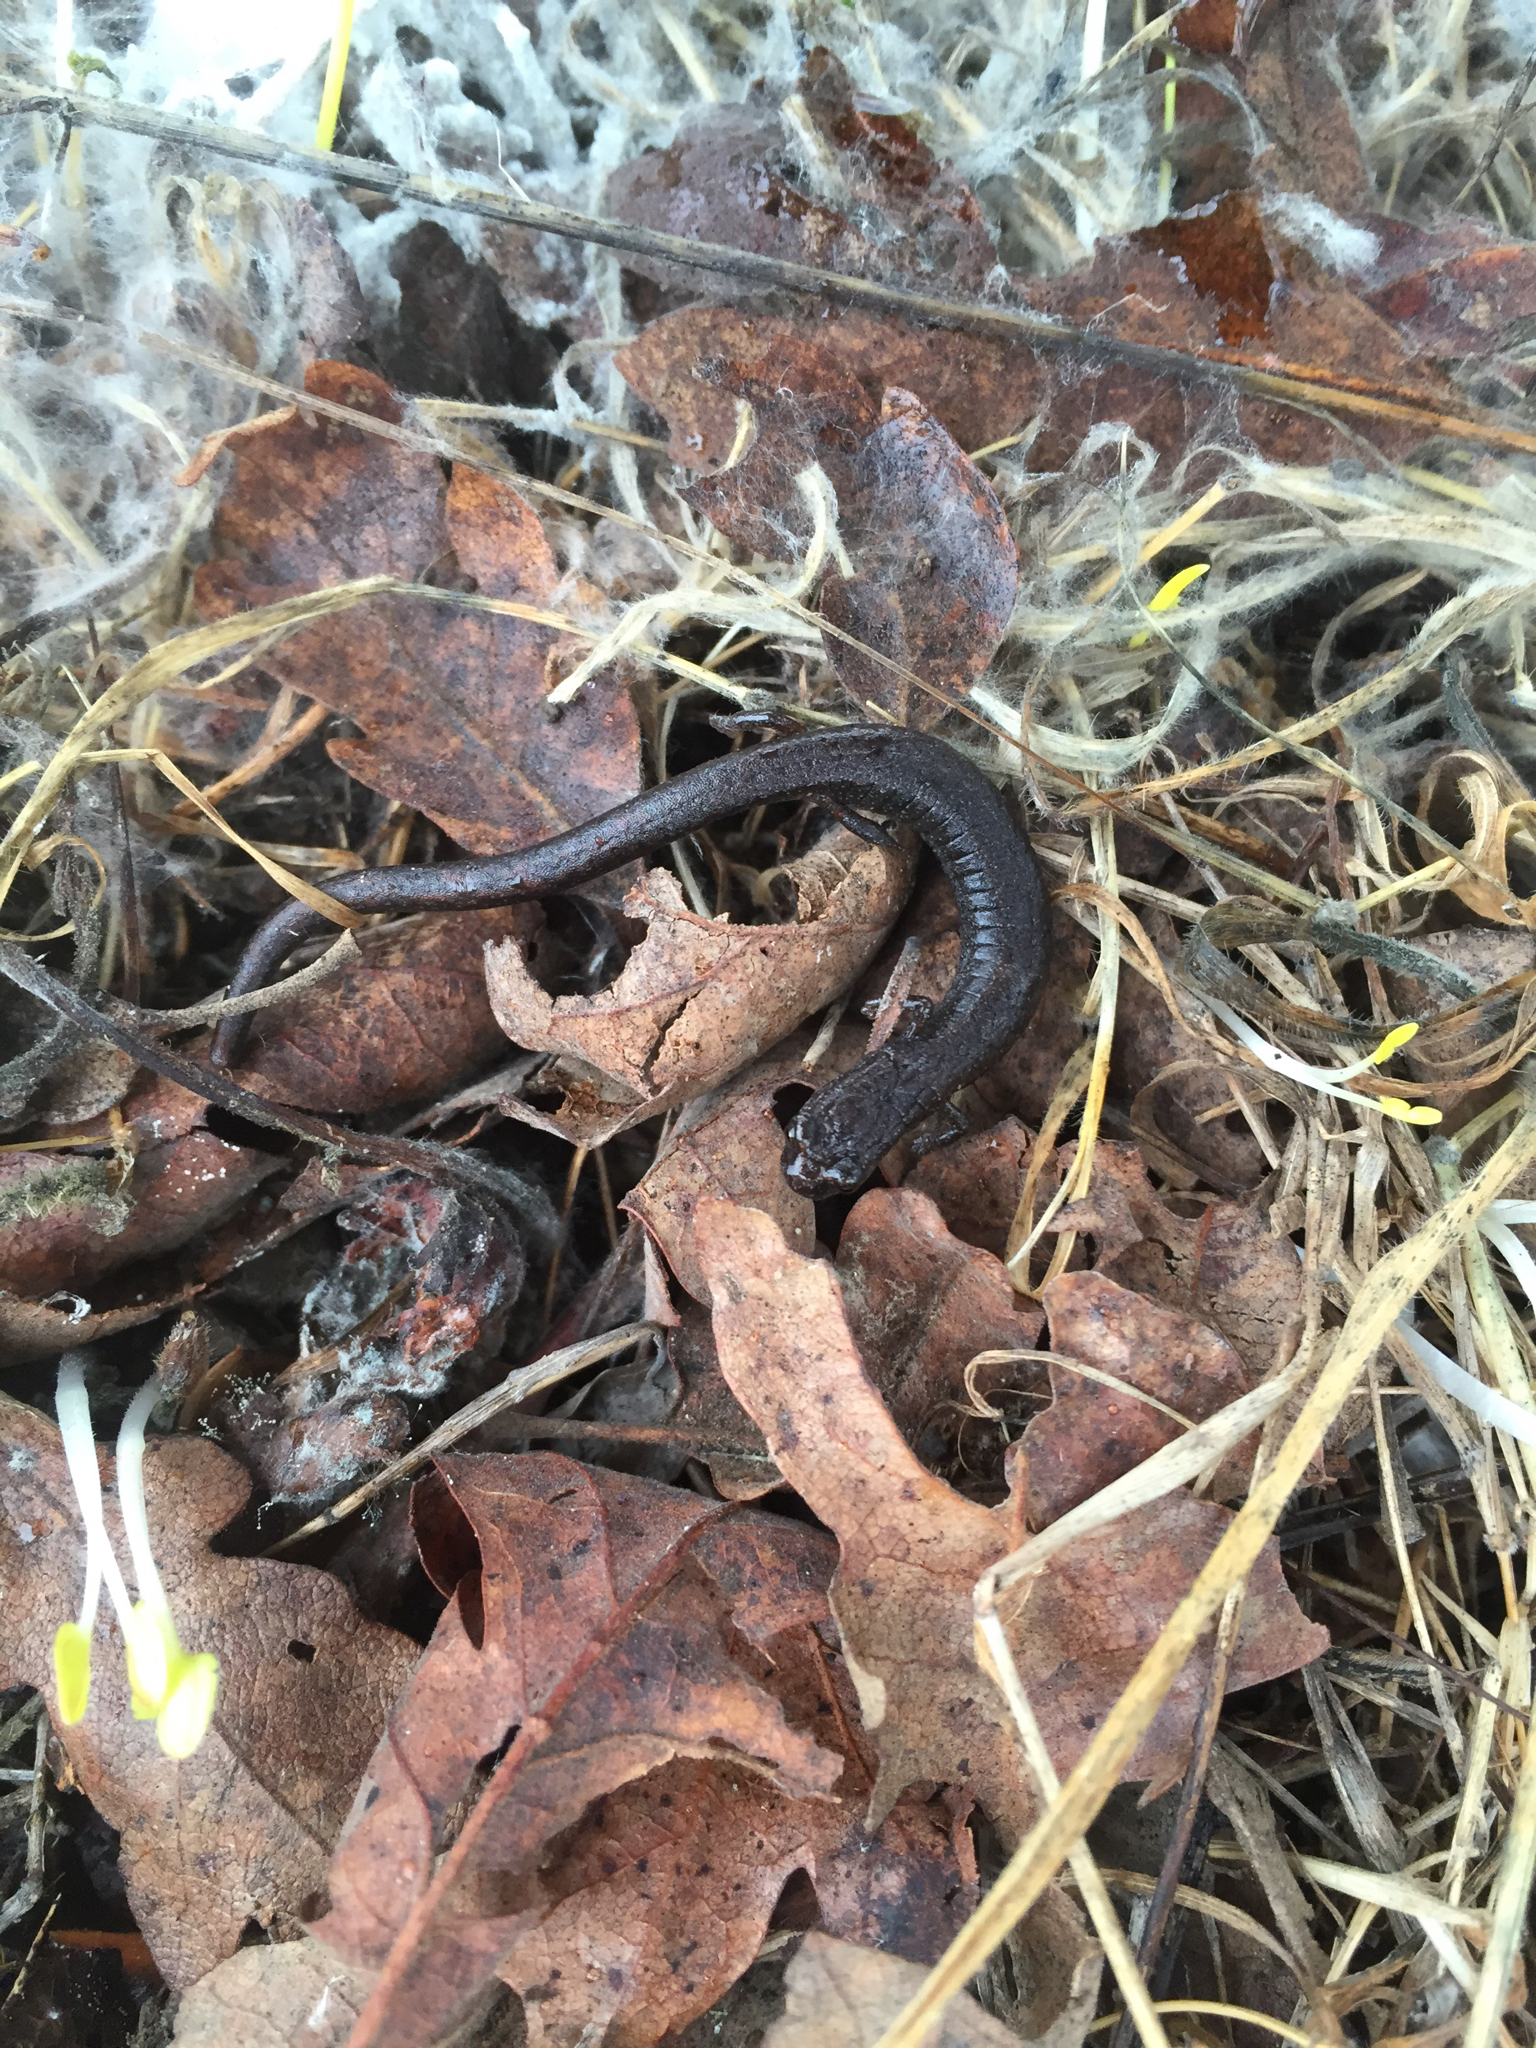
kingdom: Animalia
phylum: Chordata
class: Amphibia
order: Caudata
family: Plethodontidae
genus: Batrachoseps
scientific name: Batrachoseps attenuatus
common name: California slender salamander
